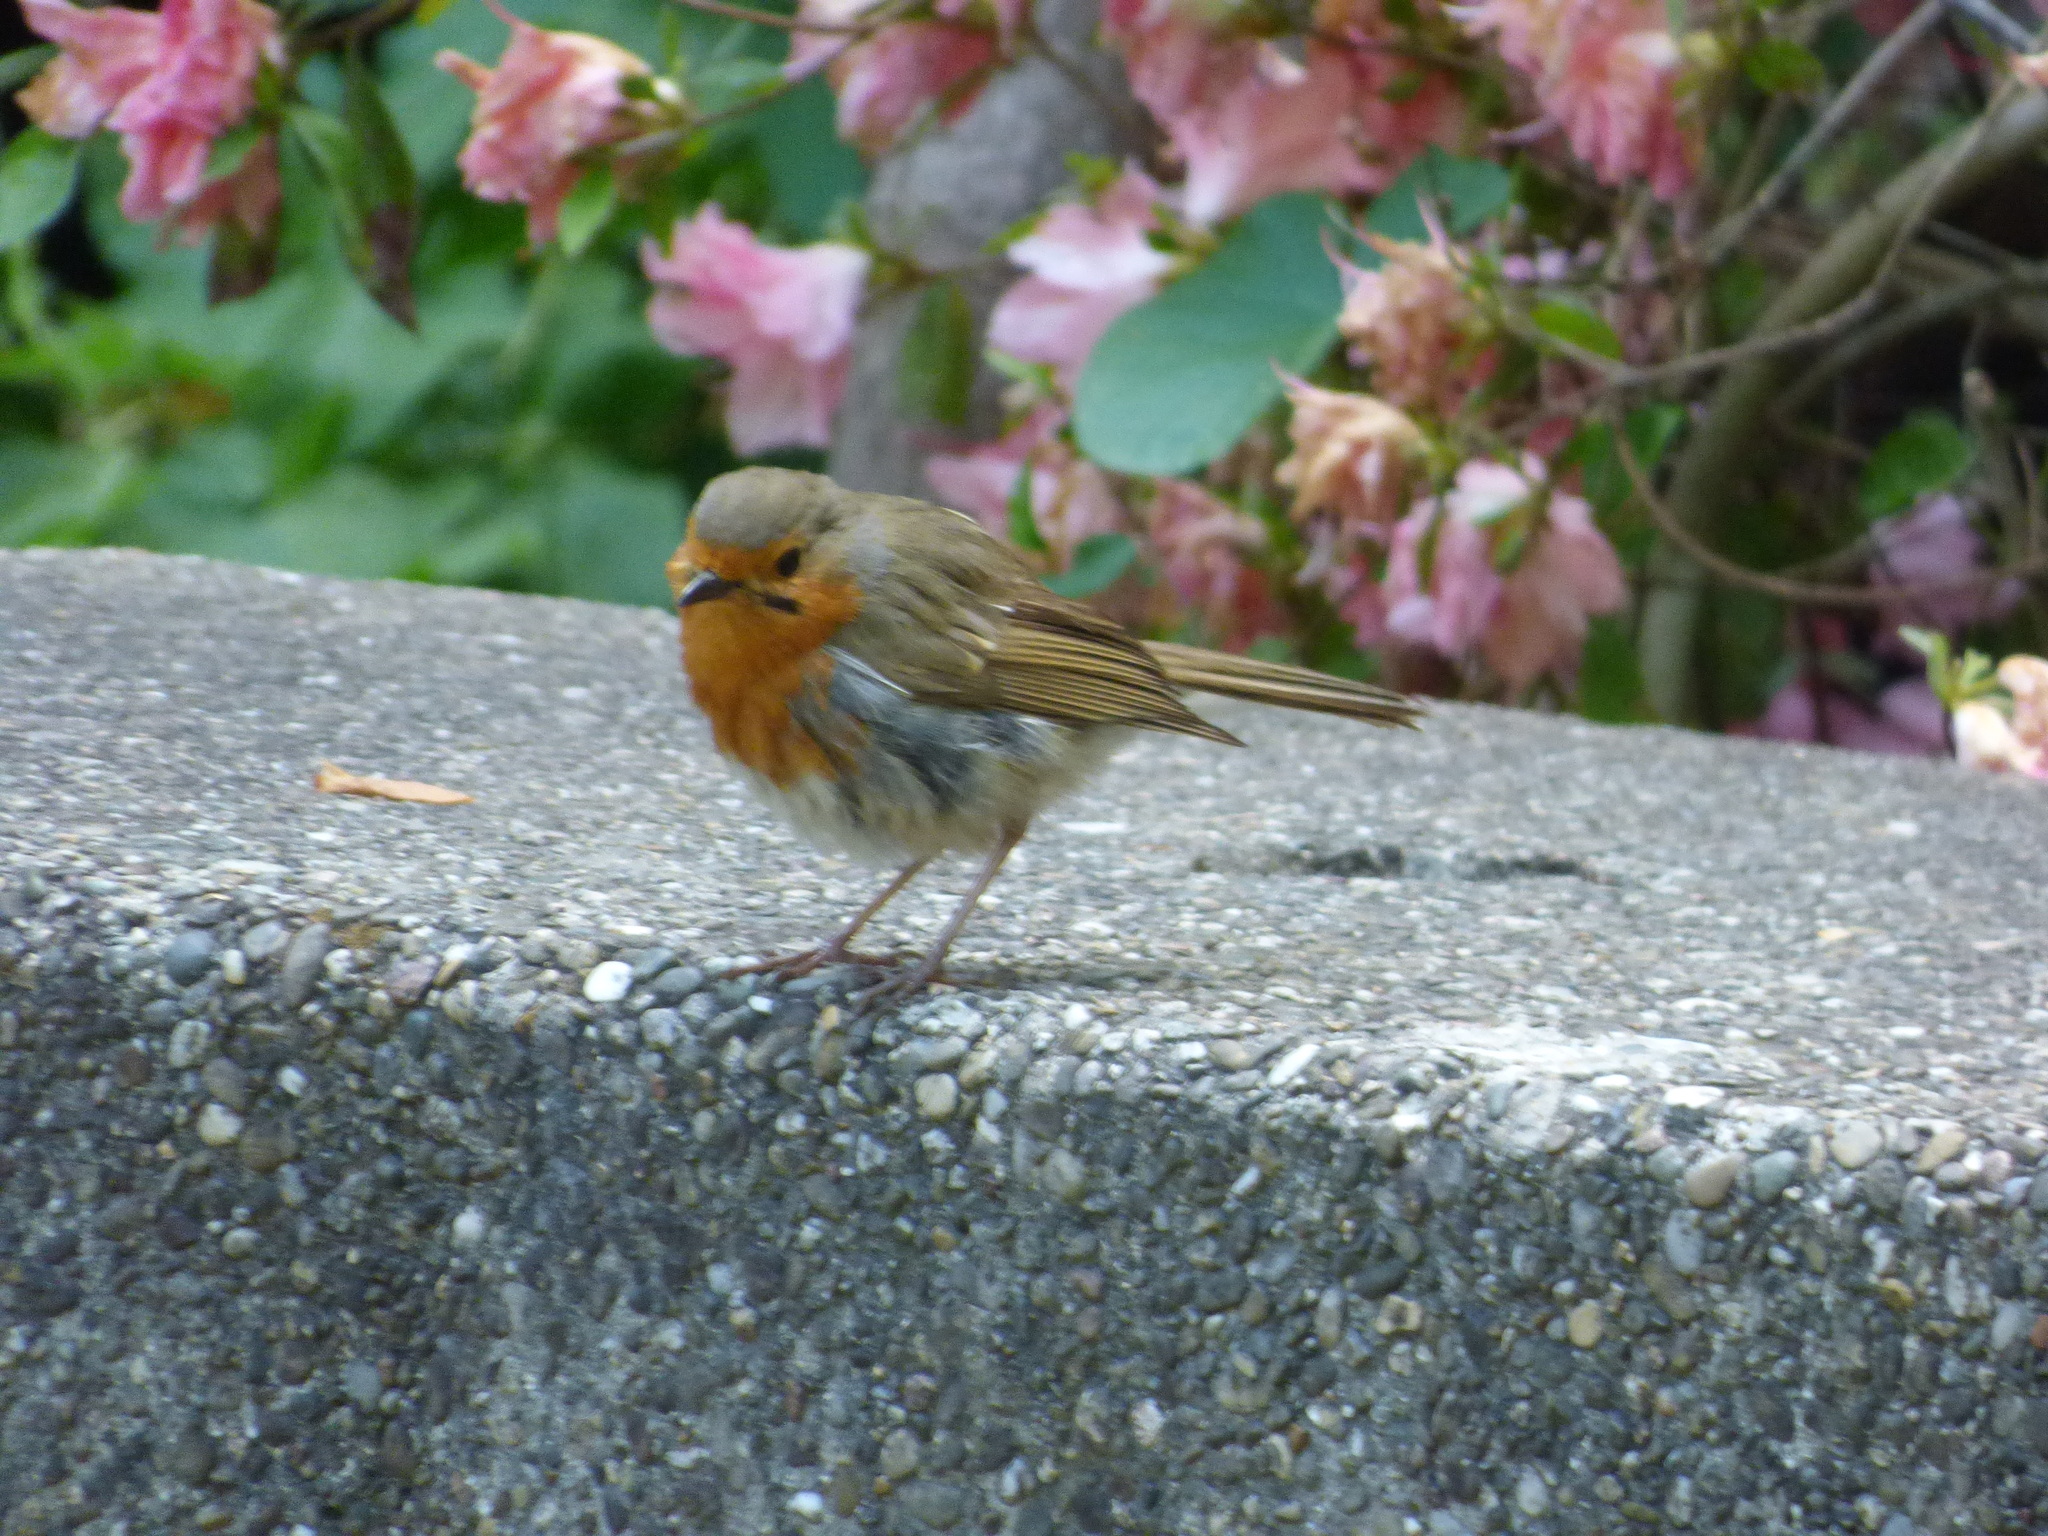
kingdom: Animalia
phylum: Chordata
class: Aves
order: Passeriformes
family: Muscicapidae
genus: Erithacus
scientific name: Erithacus rubecula
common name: European robin
